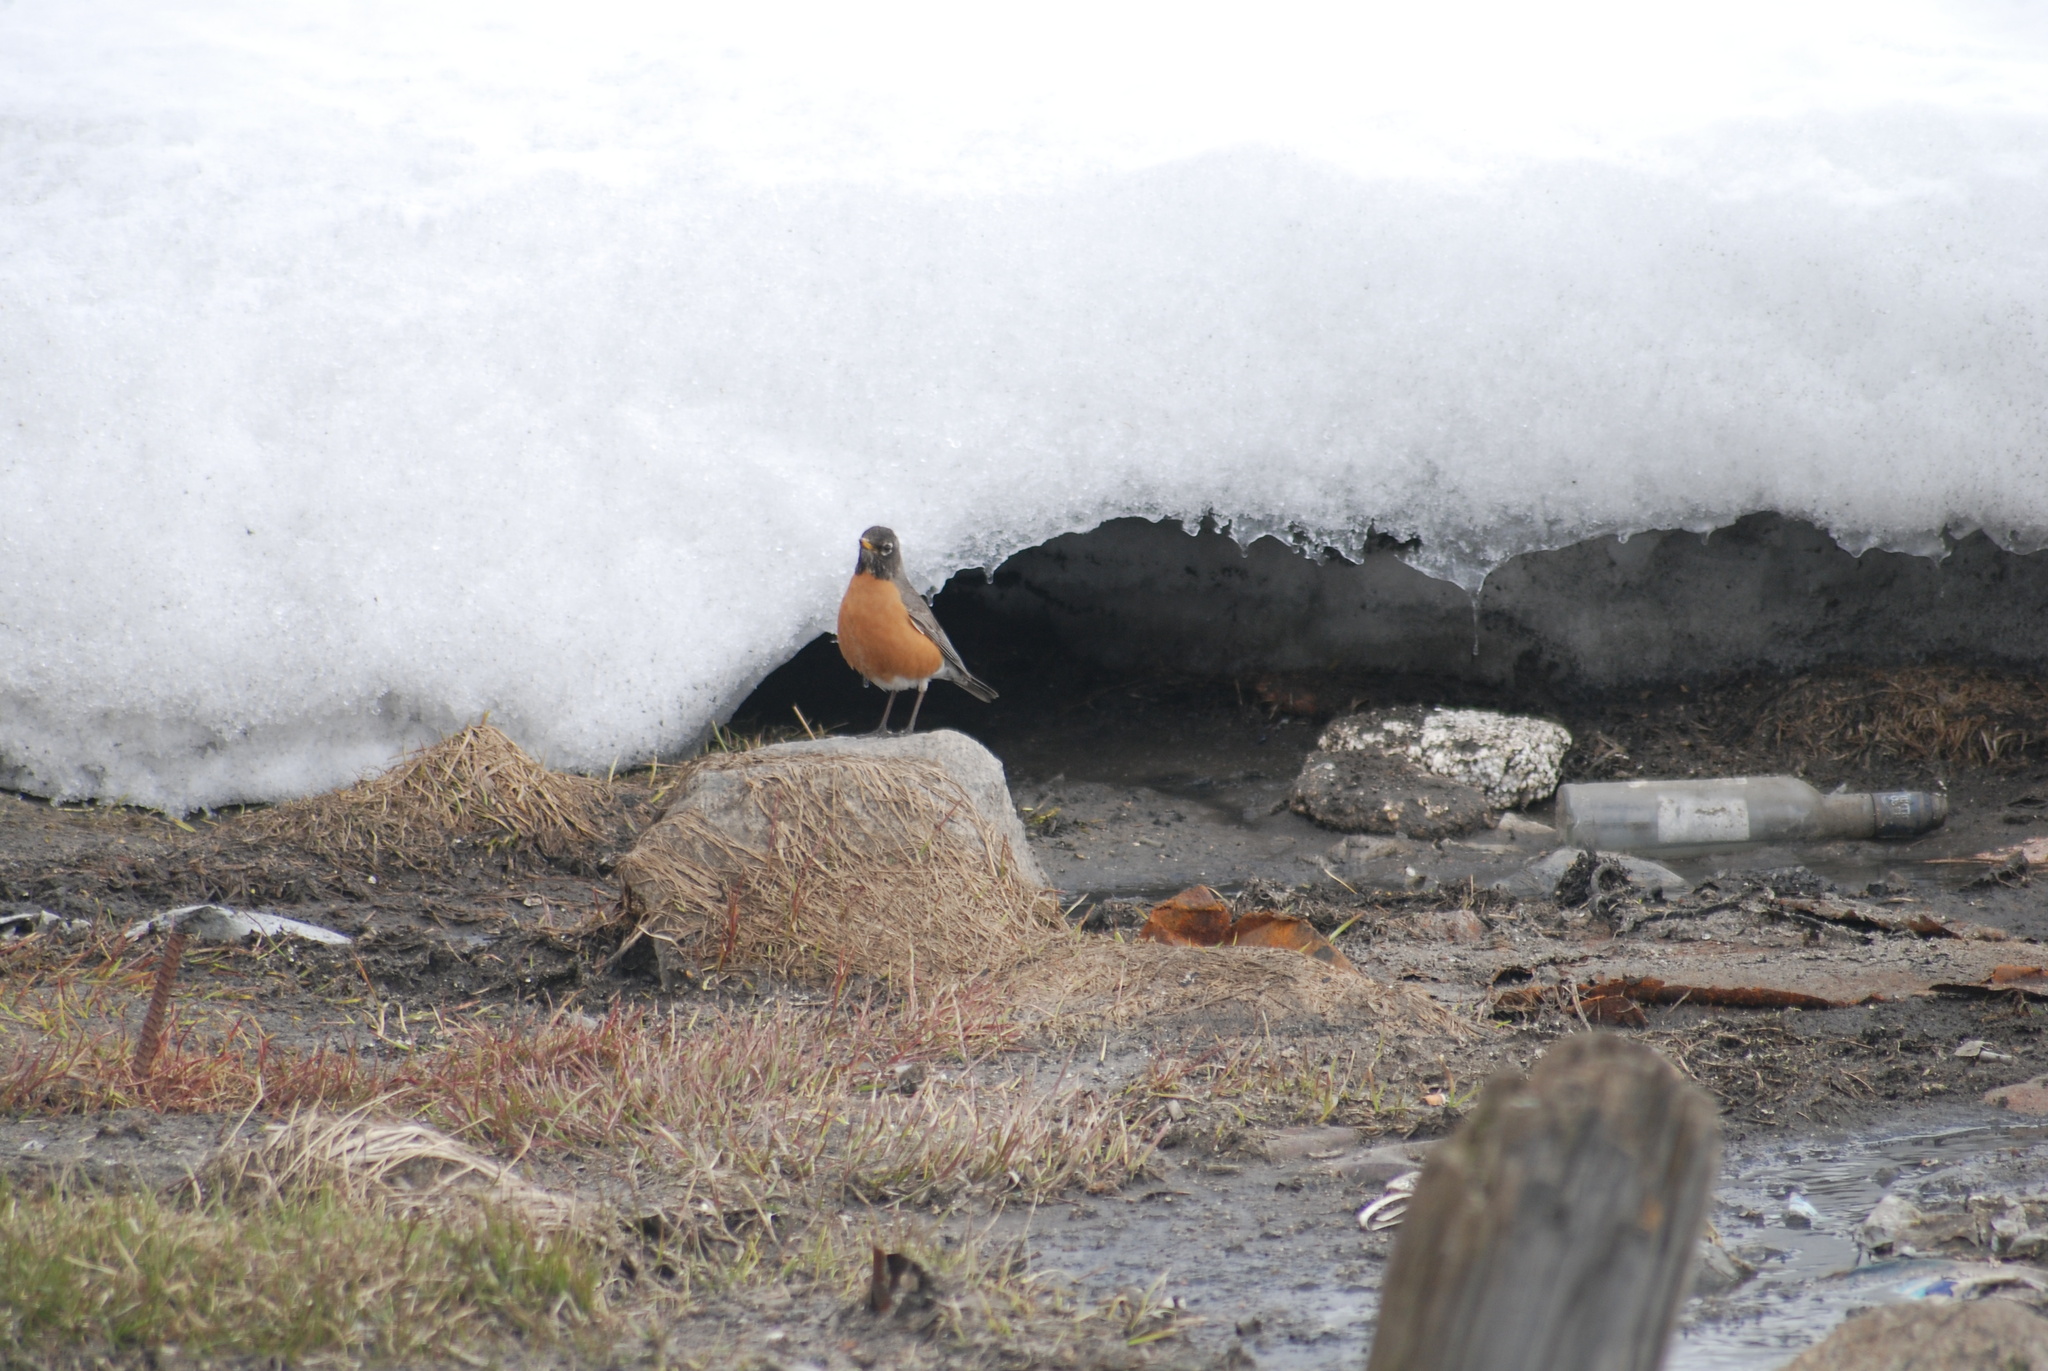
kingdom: Animalia
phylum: Chordata
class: Aves
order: Passeriformes
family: Turdidae
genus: Turdus
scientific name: Turdus migratorius
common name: American robin
